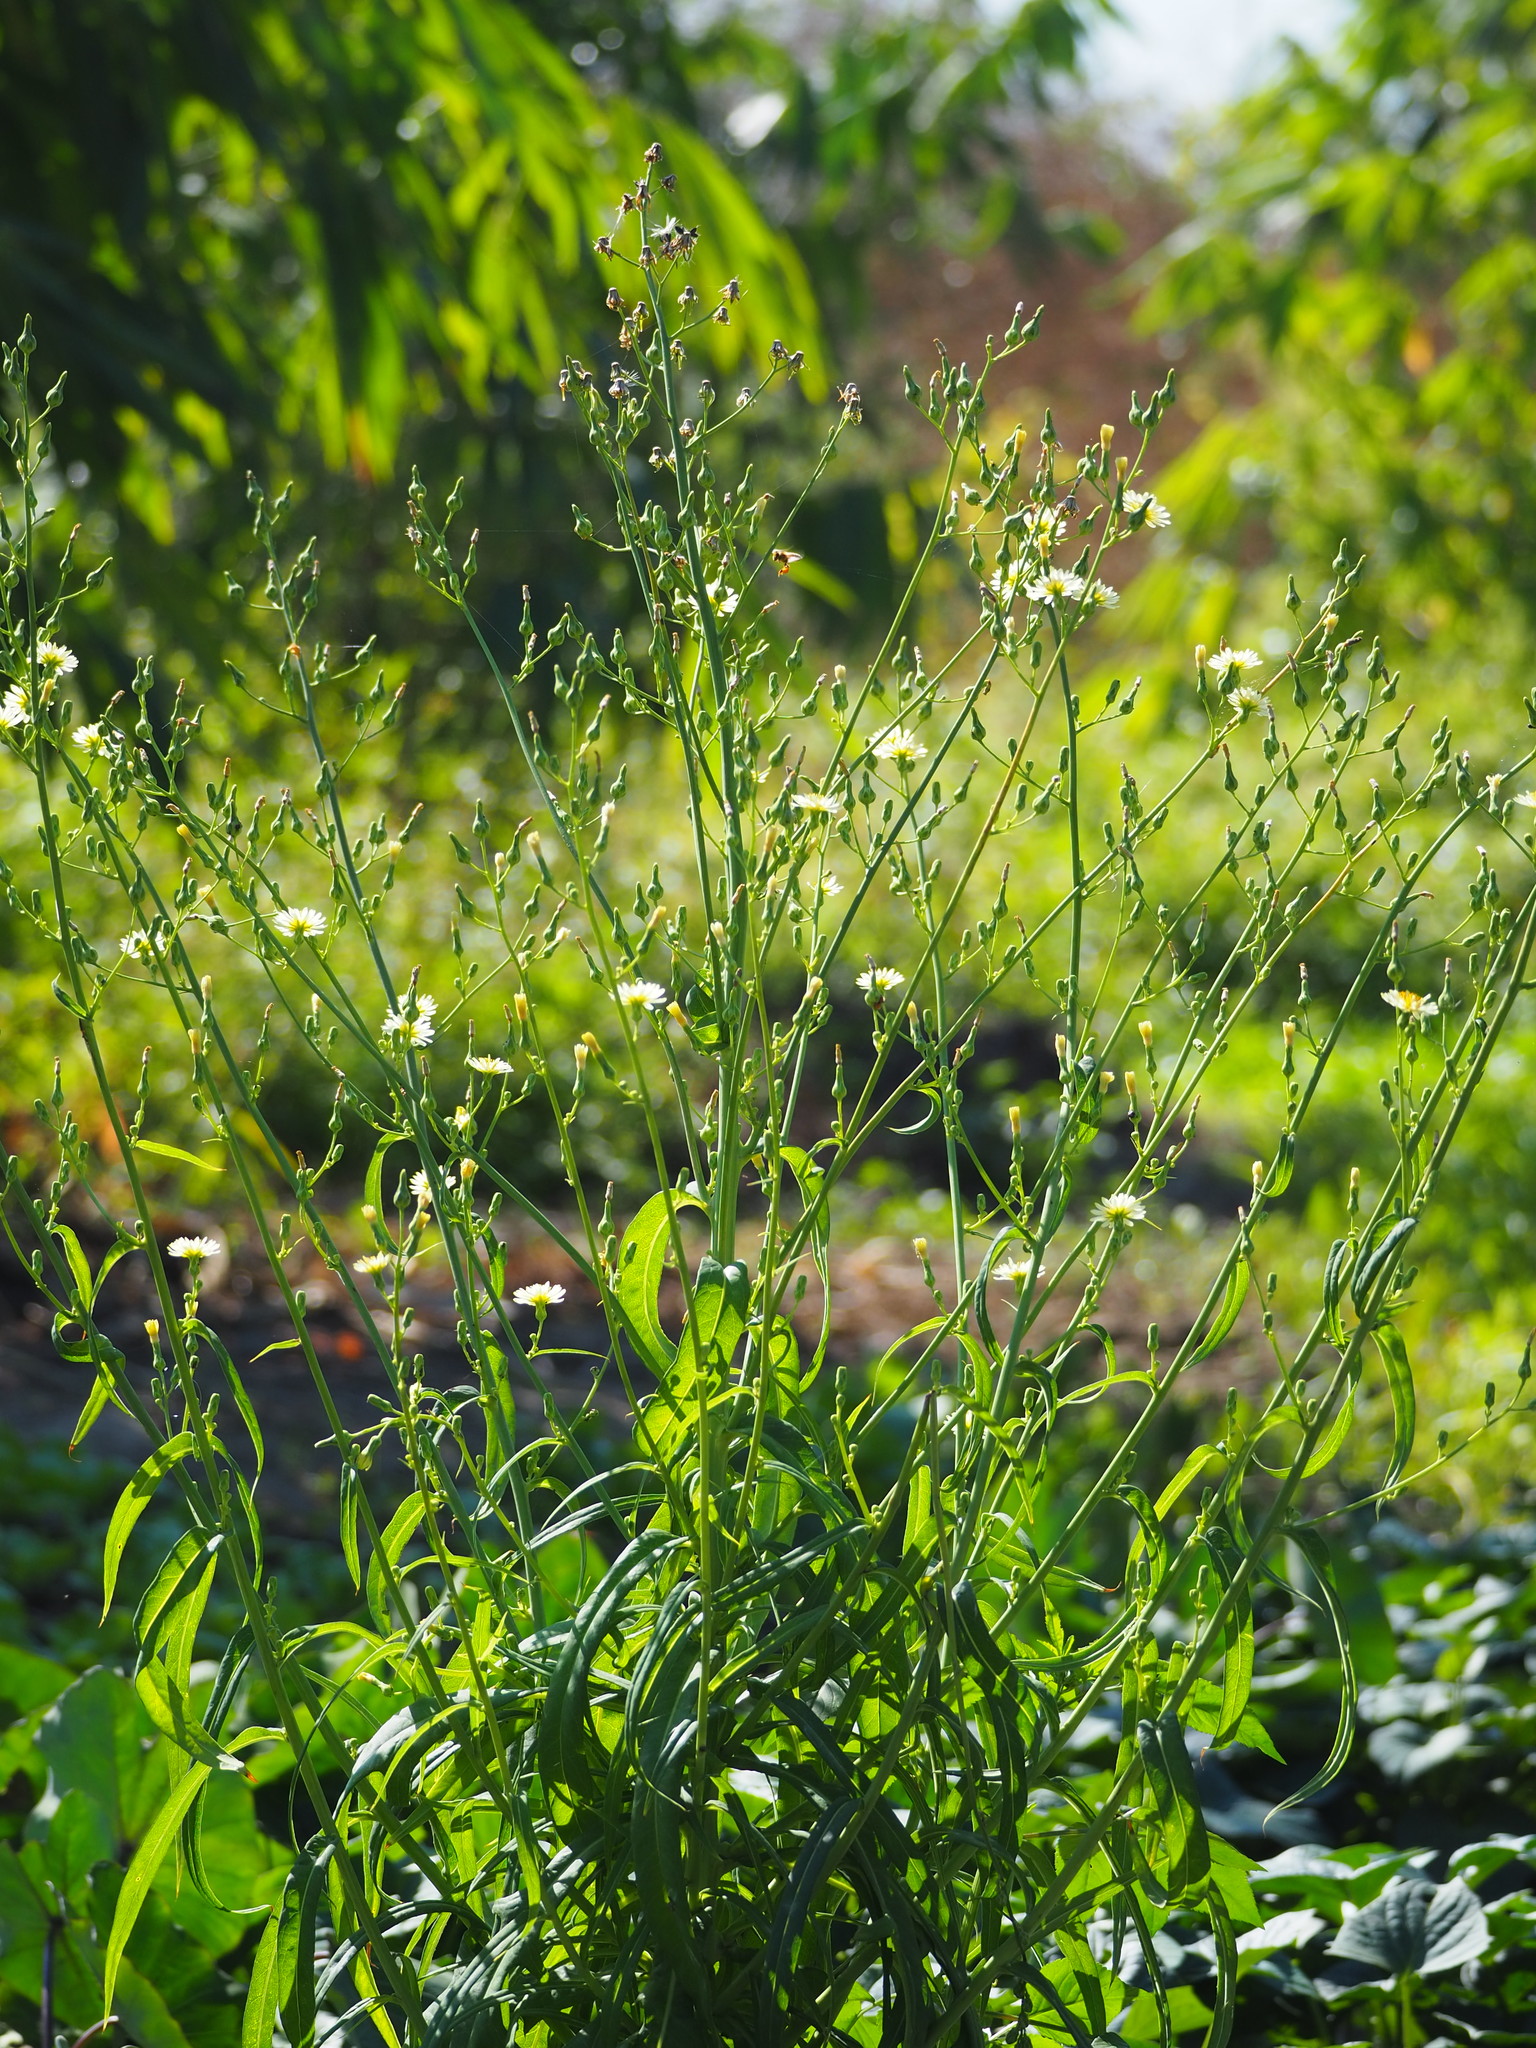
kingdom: Plantae
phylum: Tracheophyta
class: Magnoliopsida
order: Asterales
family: Asteraceae
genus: Lactuca
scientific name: Lactuca indica
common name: Wild lettuce
